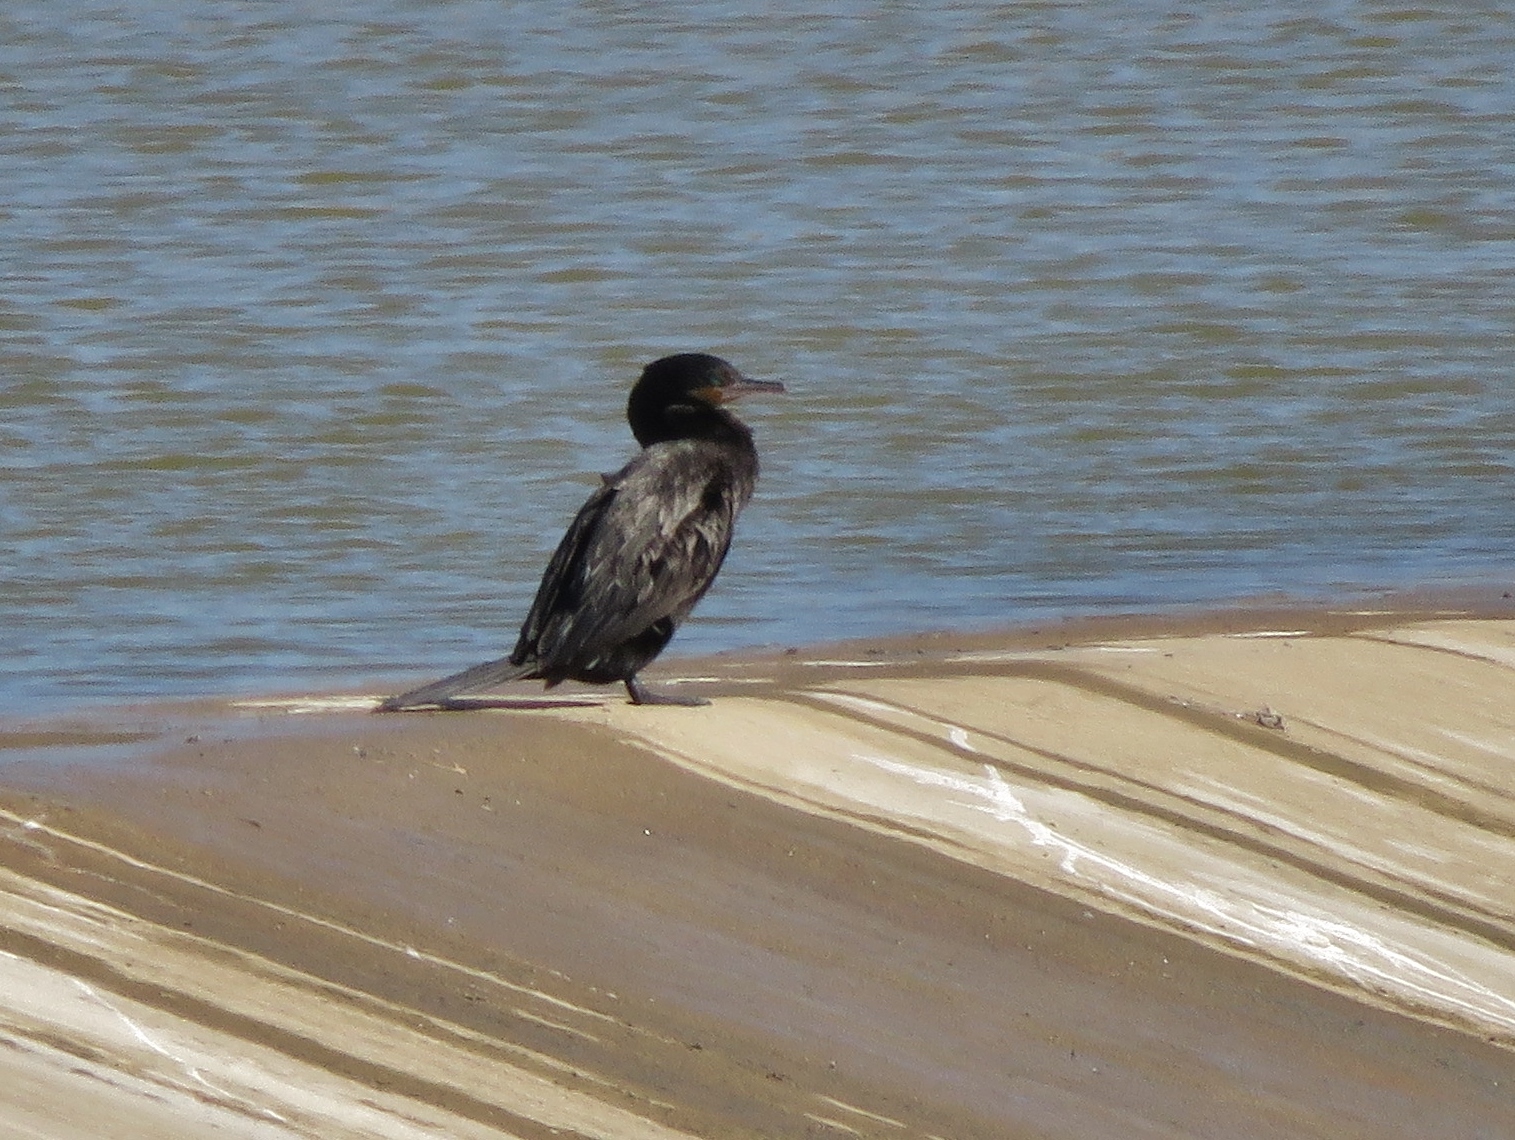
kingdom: Animalia
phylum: Chordata
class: Aves
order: Suliformes
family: Phalacrocoracidae
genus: Phalacrocorax
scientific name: Phalacrocorax brasilianus
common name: Neotropic cormorant
